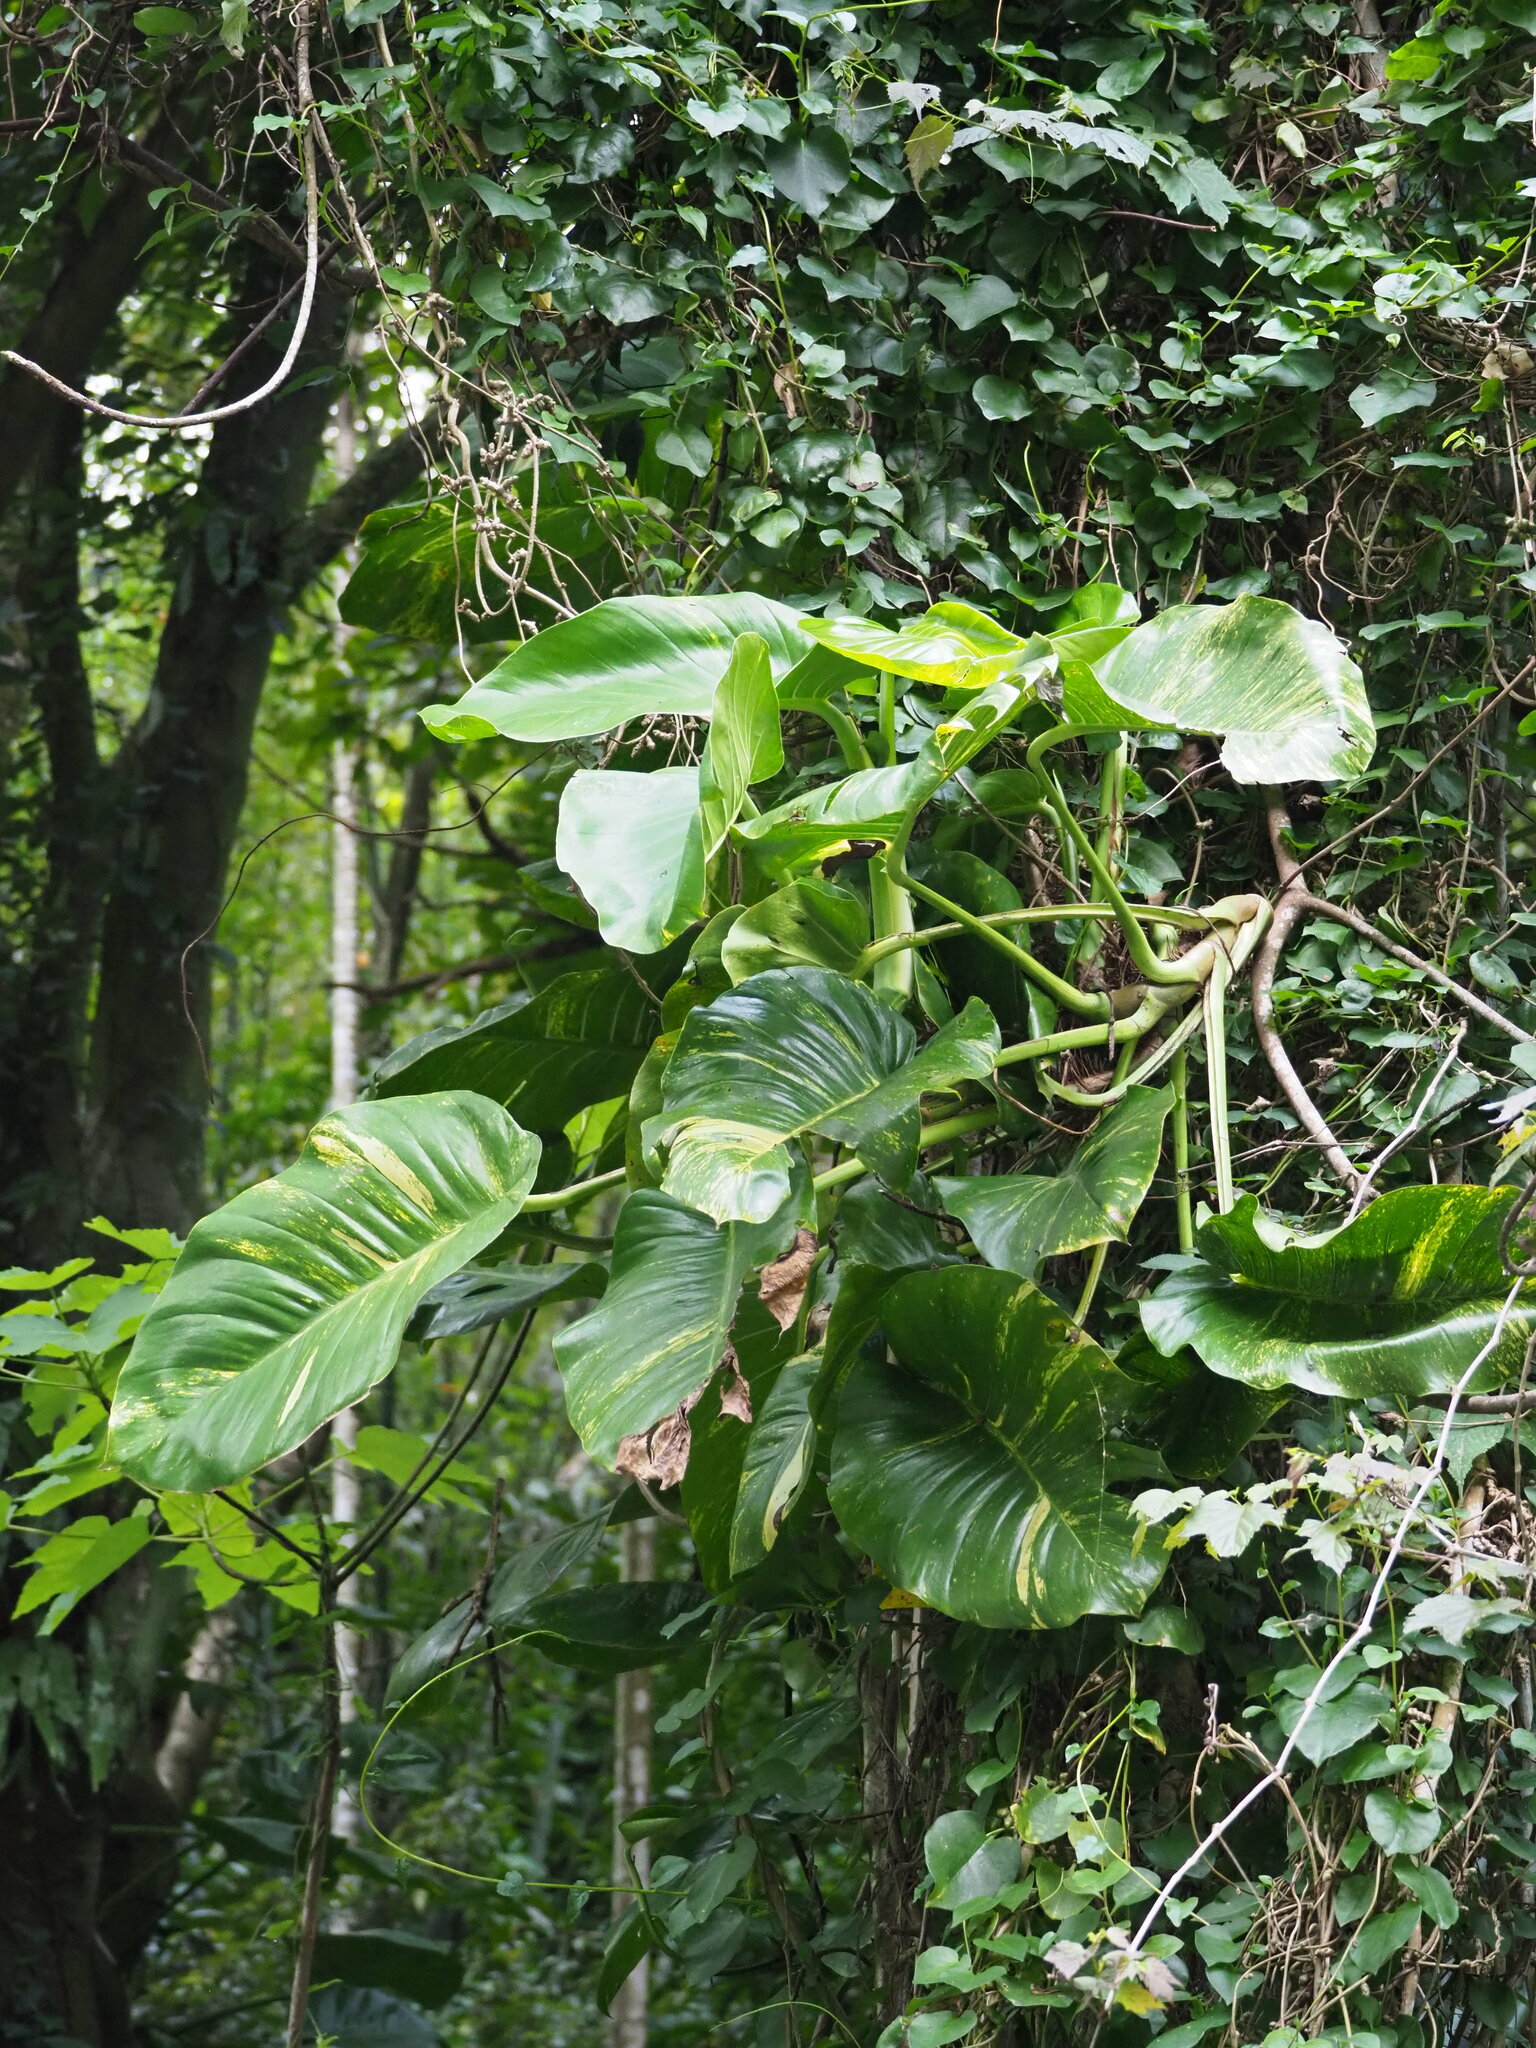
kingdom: Plantae
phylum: Tracheophyta
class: Liliopsida
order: Alismatales
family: Araceae
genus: Epipremnum
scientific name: Epipremnum aureum
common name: Golden hunter's-robe
